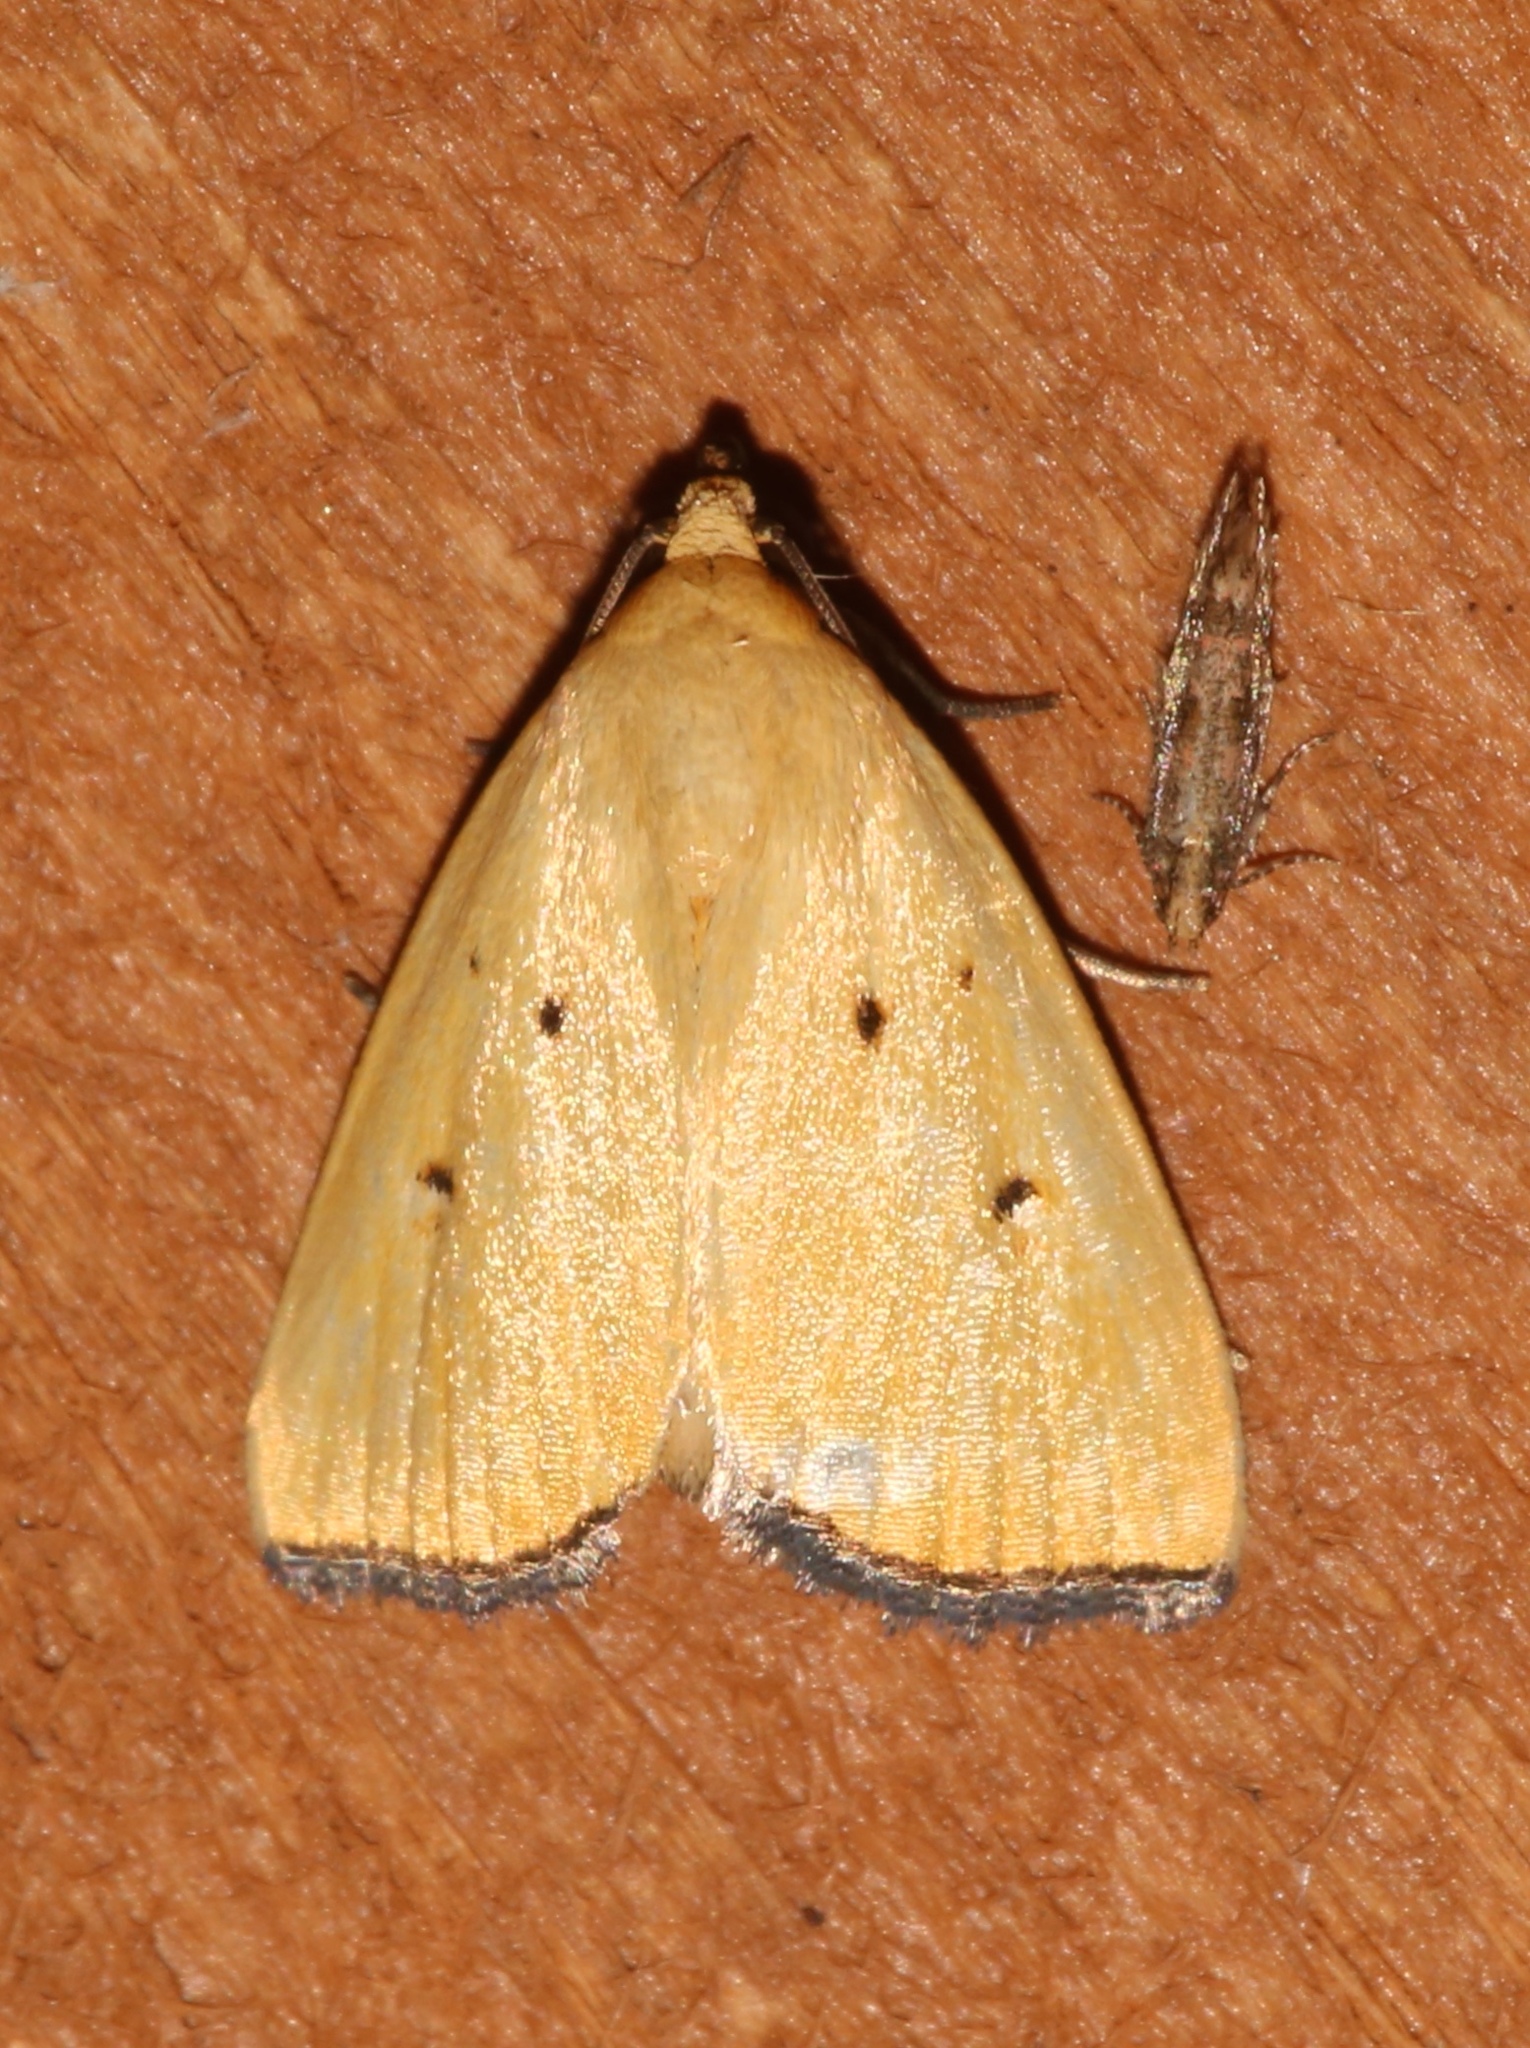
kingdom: Animalia
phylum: Arthropoda
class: Insecta
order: Lepidoptera
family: Noctuidae
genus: Marimatha
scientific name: Marimatha nigrofimbria
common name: Black-bordered lemon moth
